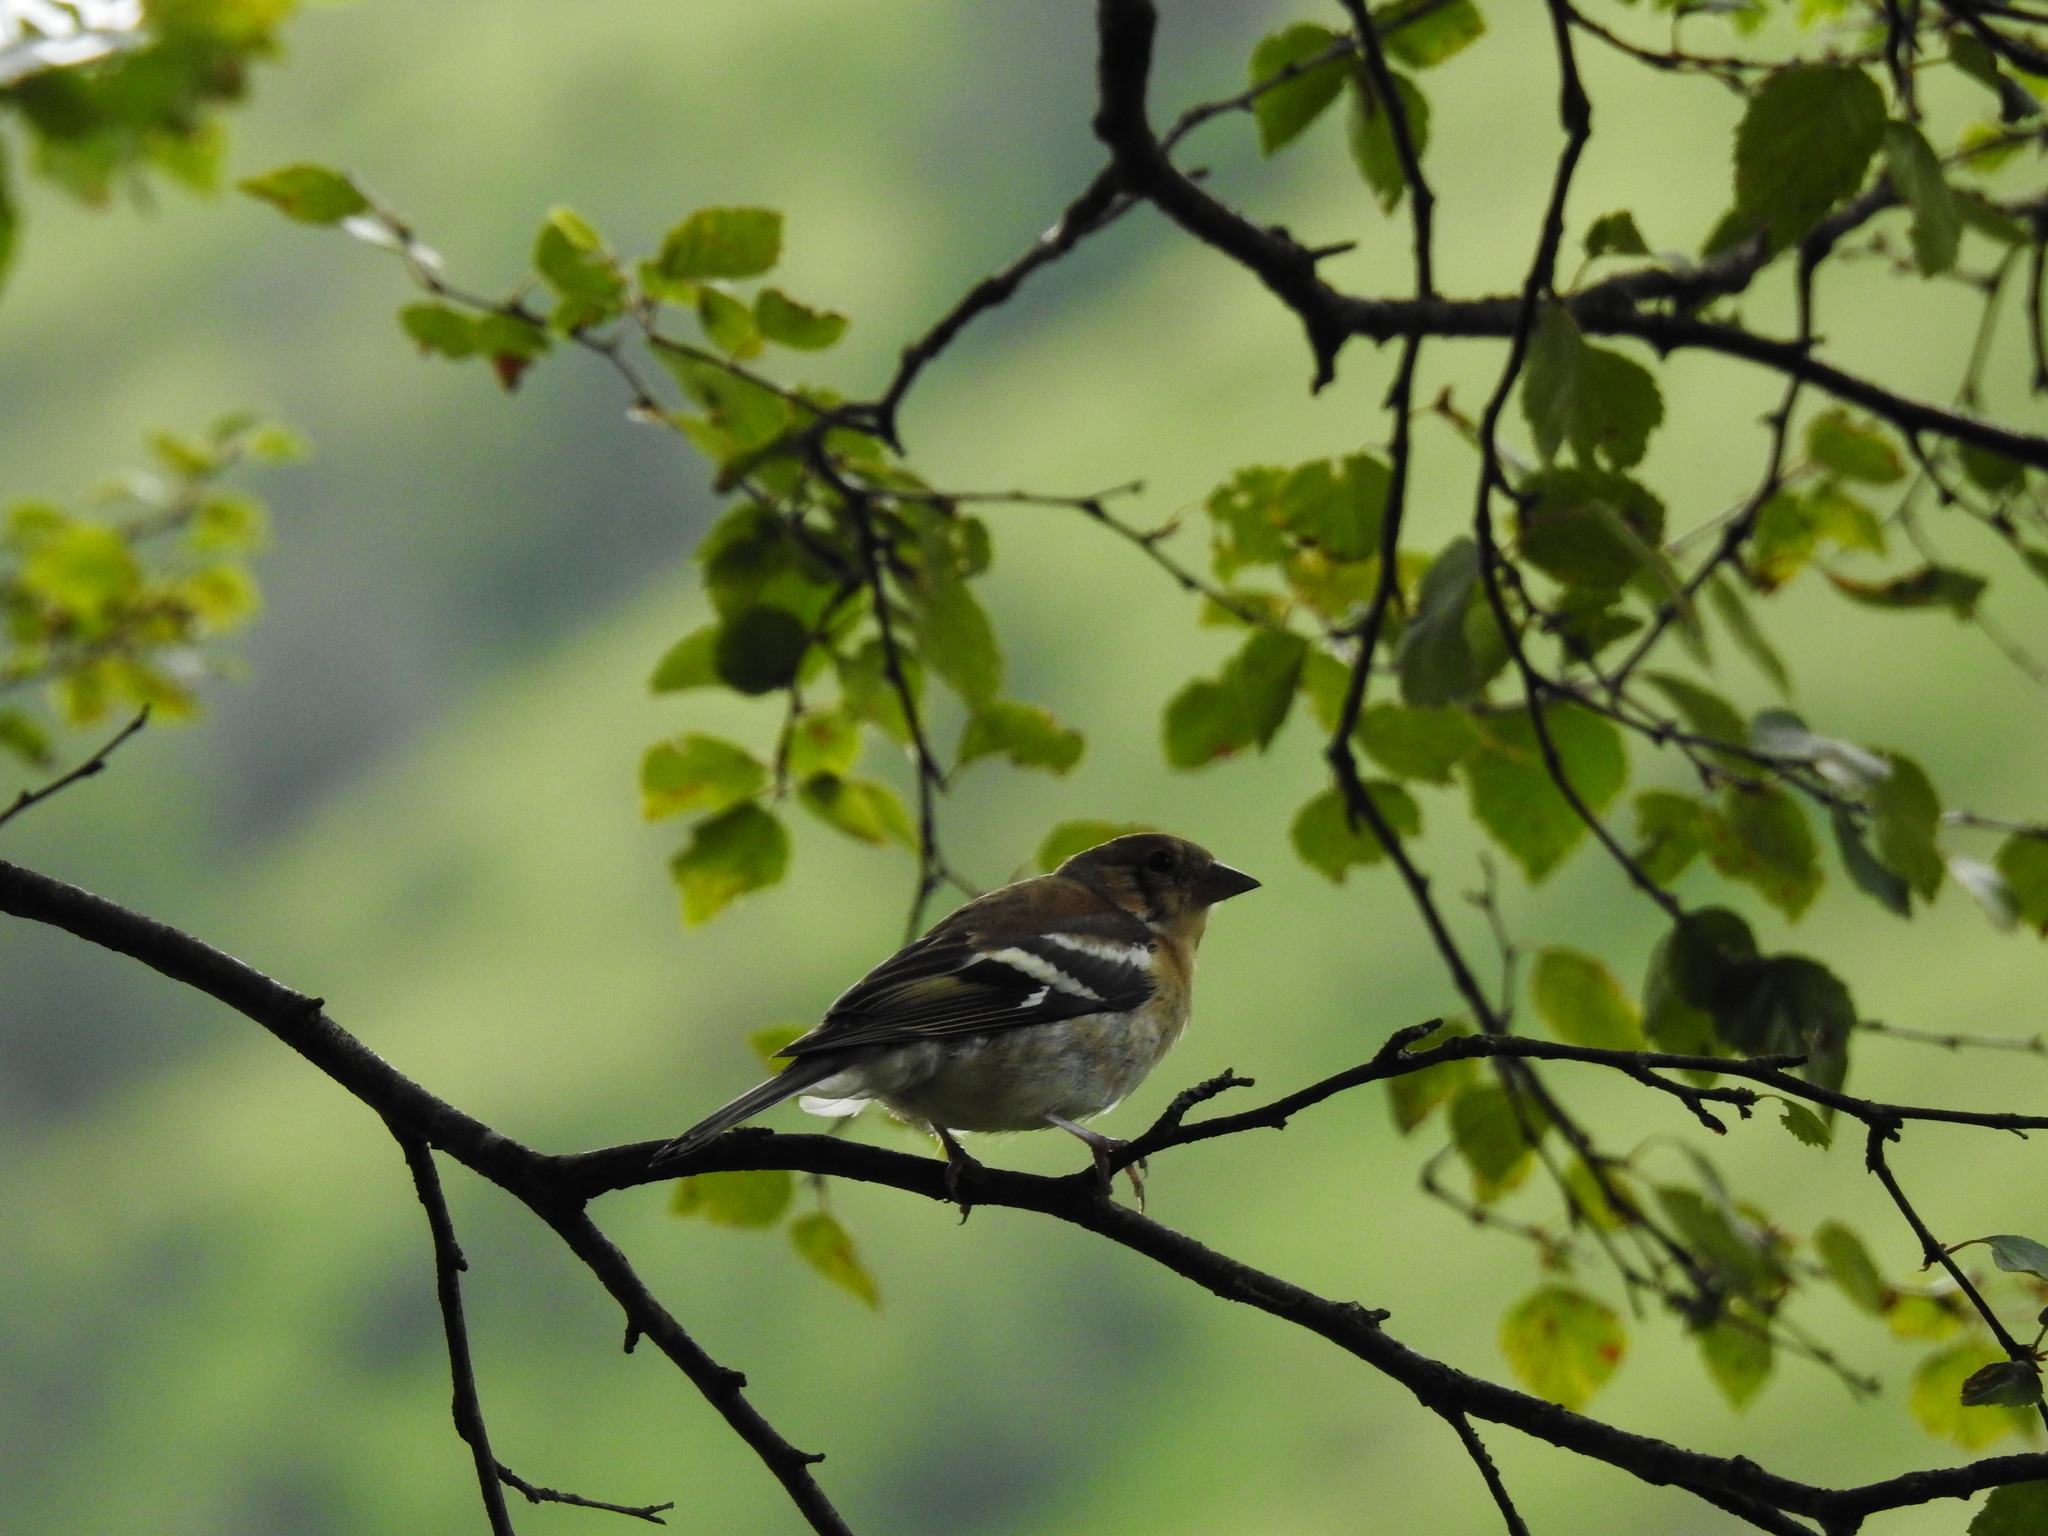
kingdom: Animalia
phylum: Chordata
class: Aves
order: Passeriformes
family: Fringillidae
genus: Fringilla
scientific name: Fringilla coelebs
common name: Common chaffinch
